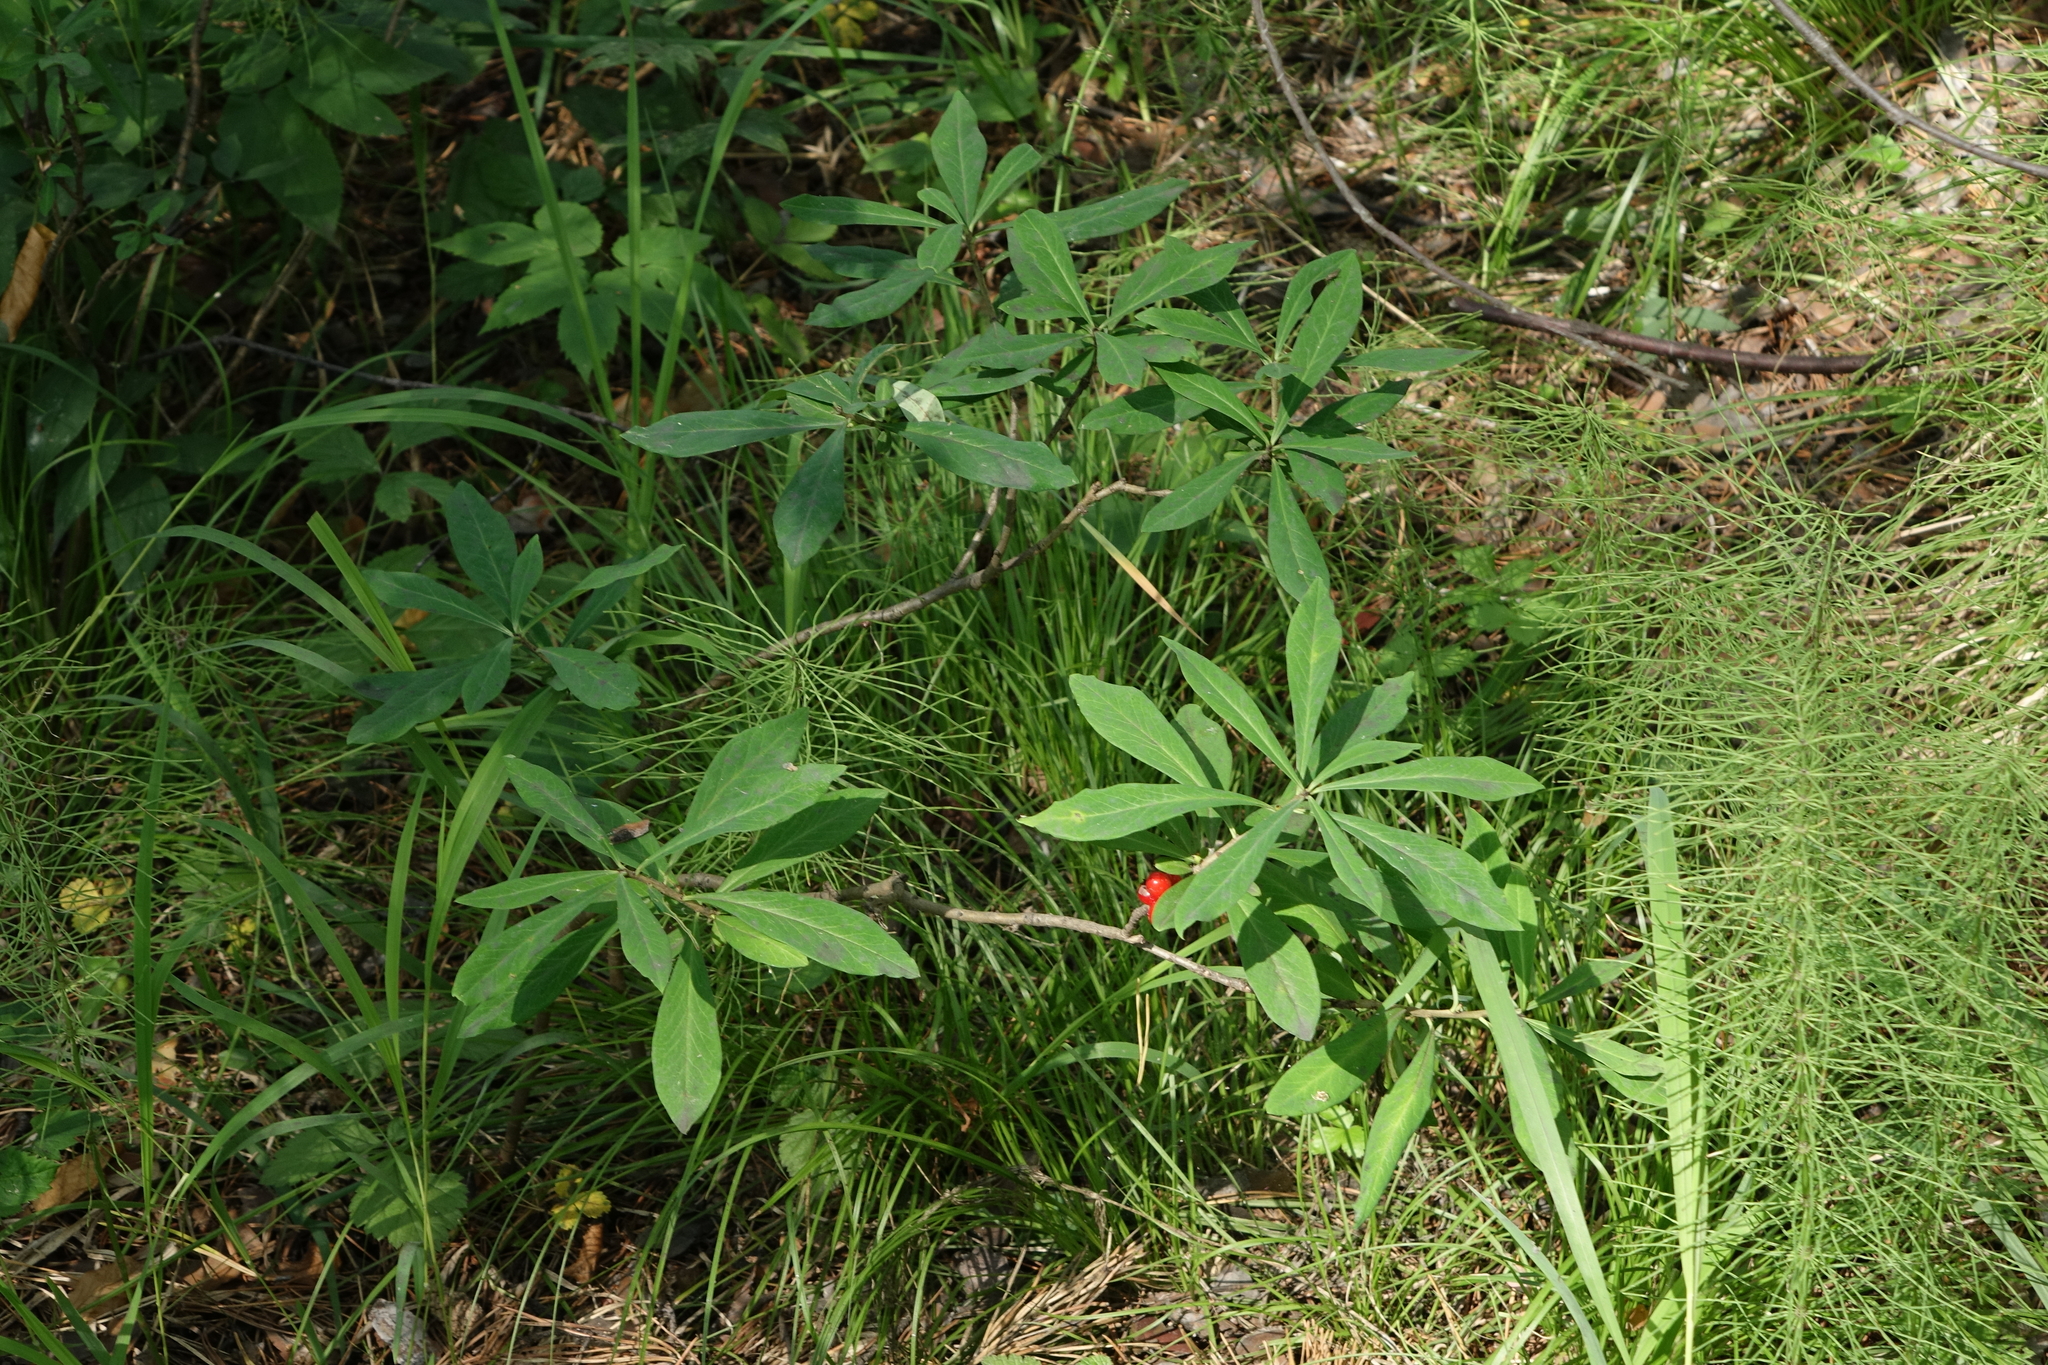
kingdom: Plantae
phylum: Tracheophyta
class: Magnoliopsida
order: Malvales
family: Thymelaeaceae
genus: Daphne
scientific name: Daphne mezereum
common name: Mezereon
